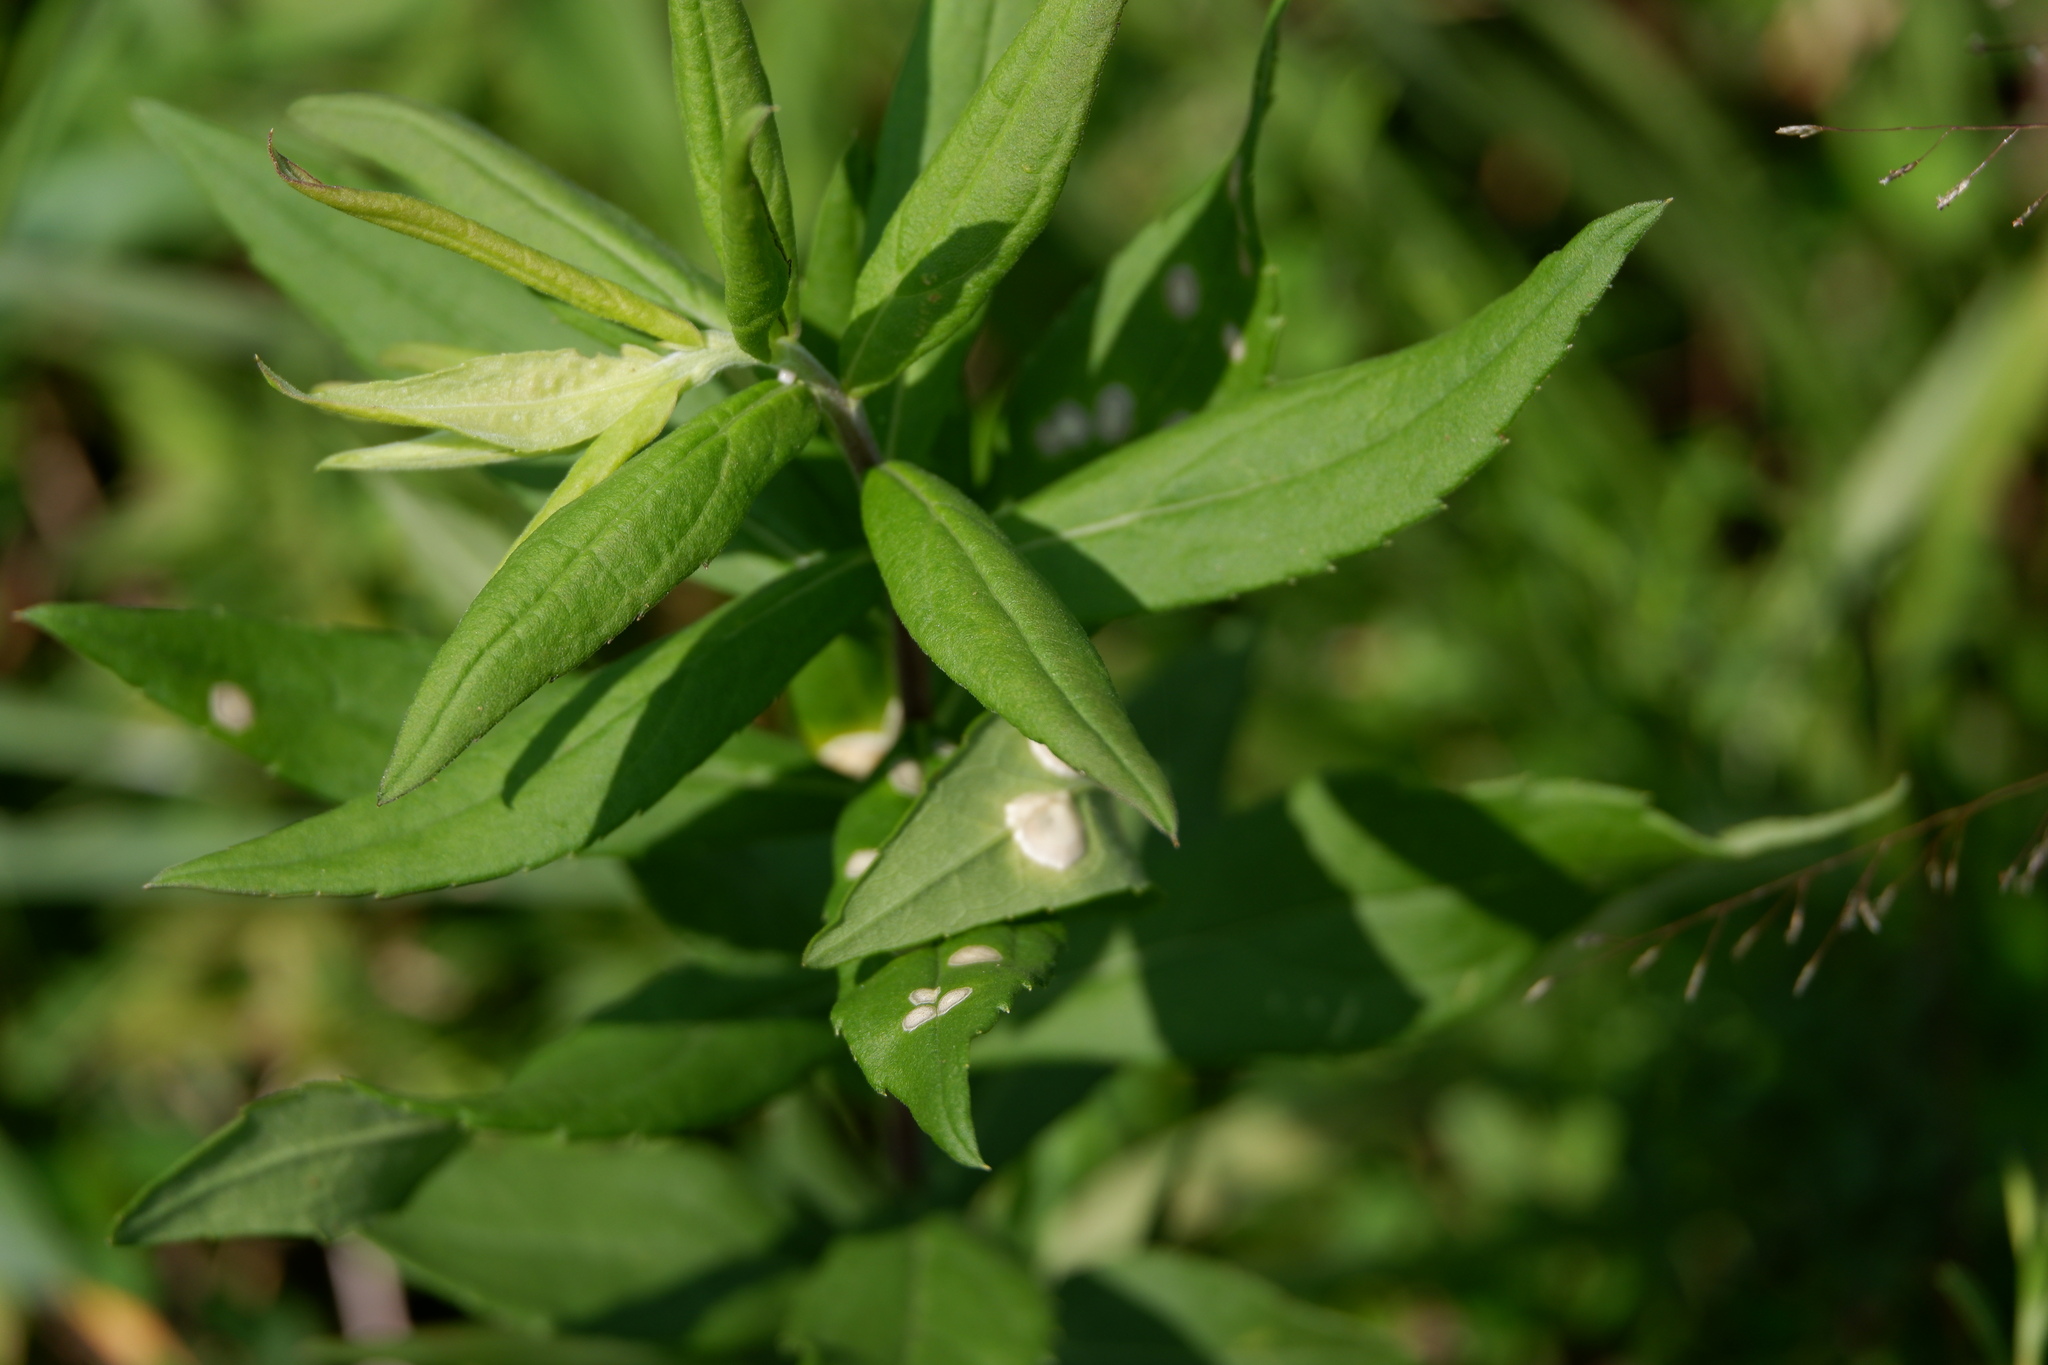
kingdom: Animalia
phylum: Arthropoda
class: Insecta
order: Diptera
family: Cecidomyiidae
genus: Asteromyia
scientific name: Asteromyia carbonifera
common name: Carbonifera goldenrod gall midge
